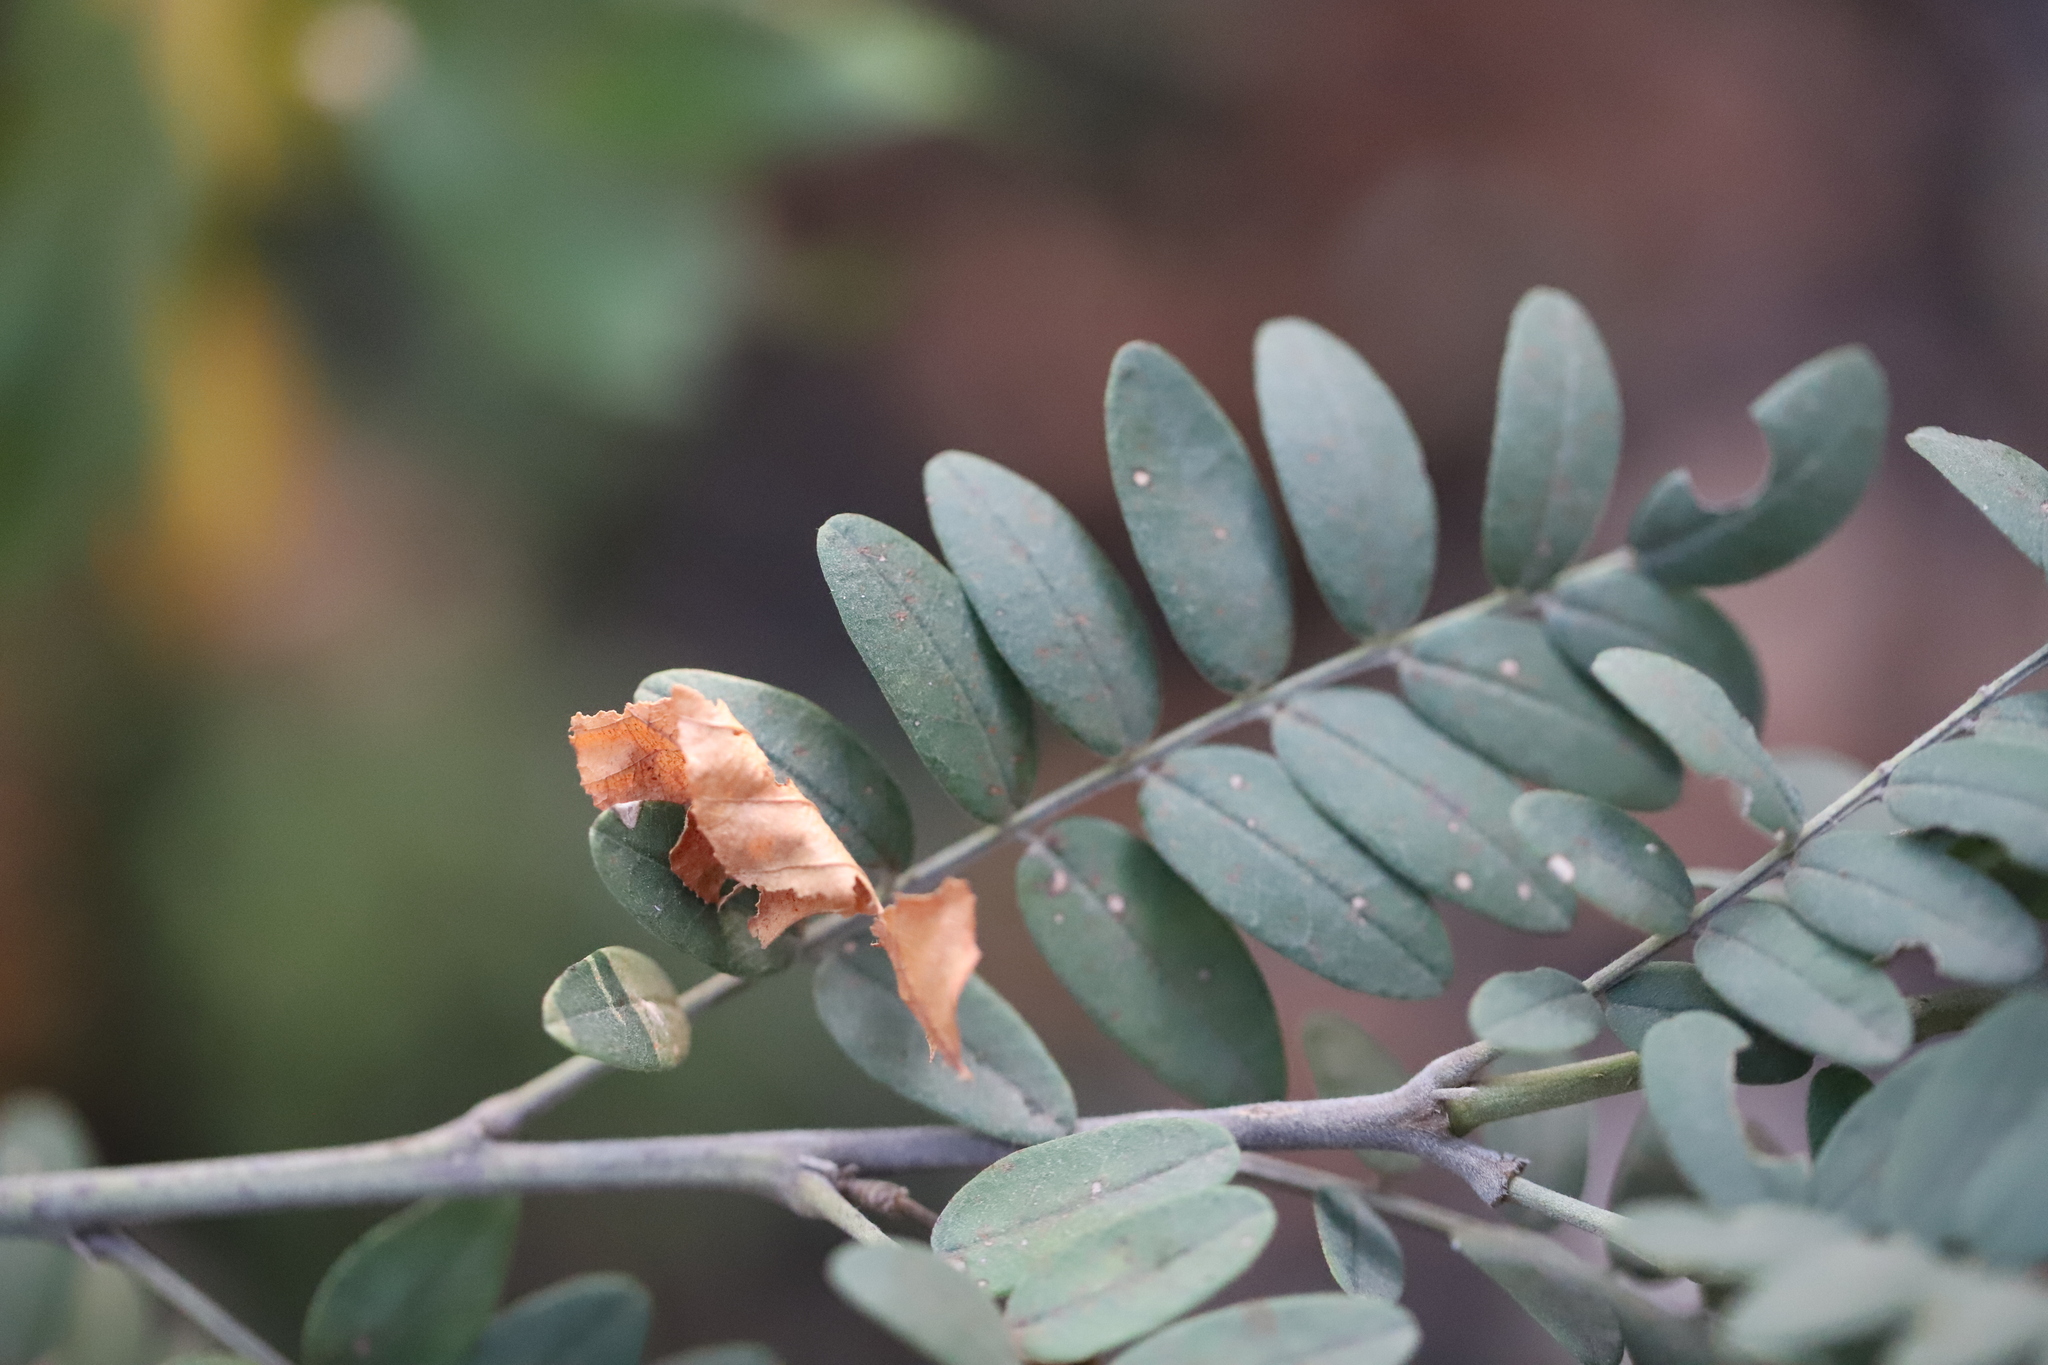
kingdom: Plantae
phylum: Tracheophyta
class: Magnoliopsida
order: Fabales
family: Fabaceae
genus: Sophora
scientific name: Sophora macrocarpa
